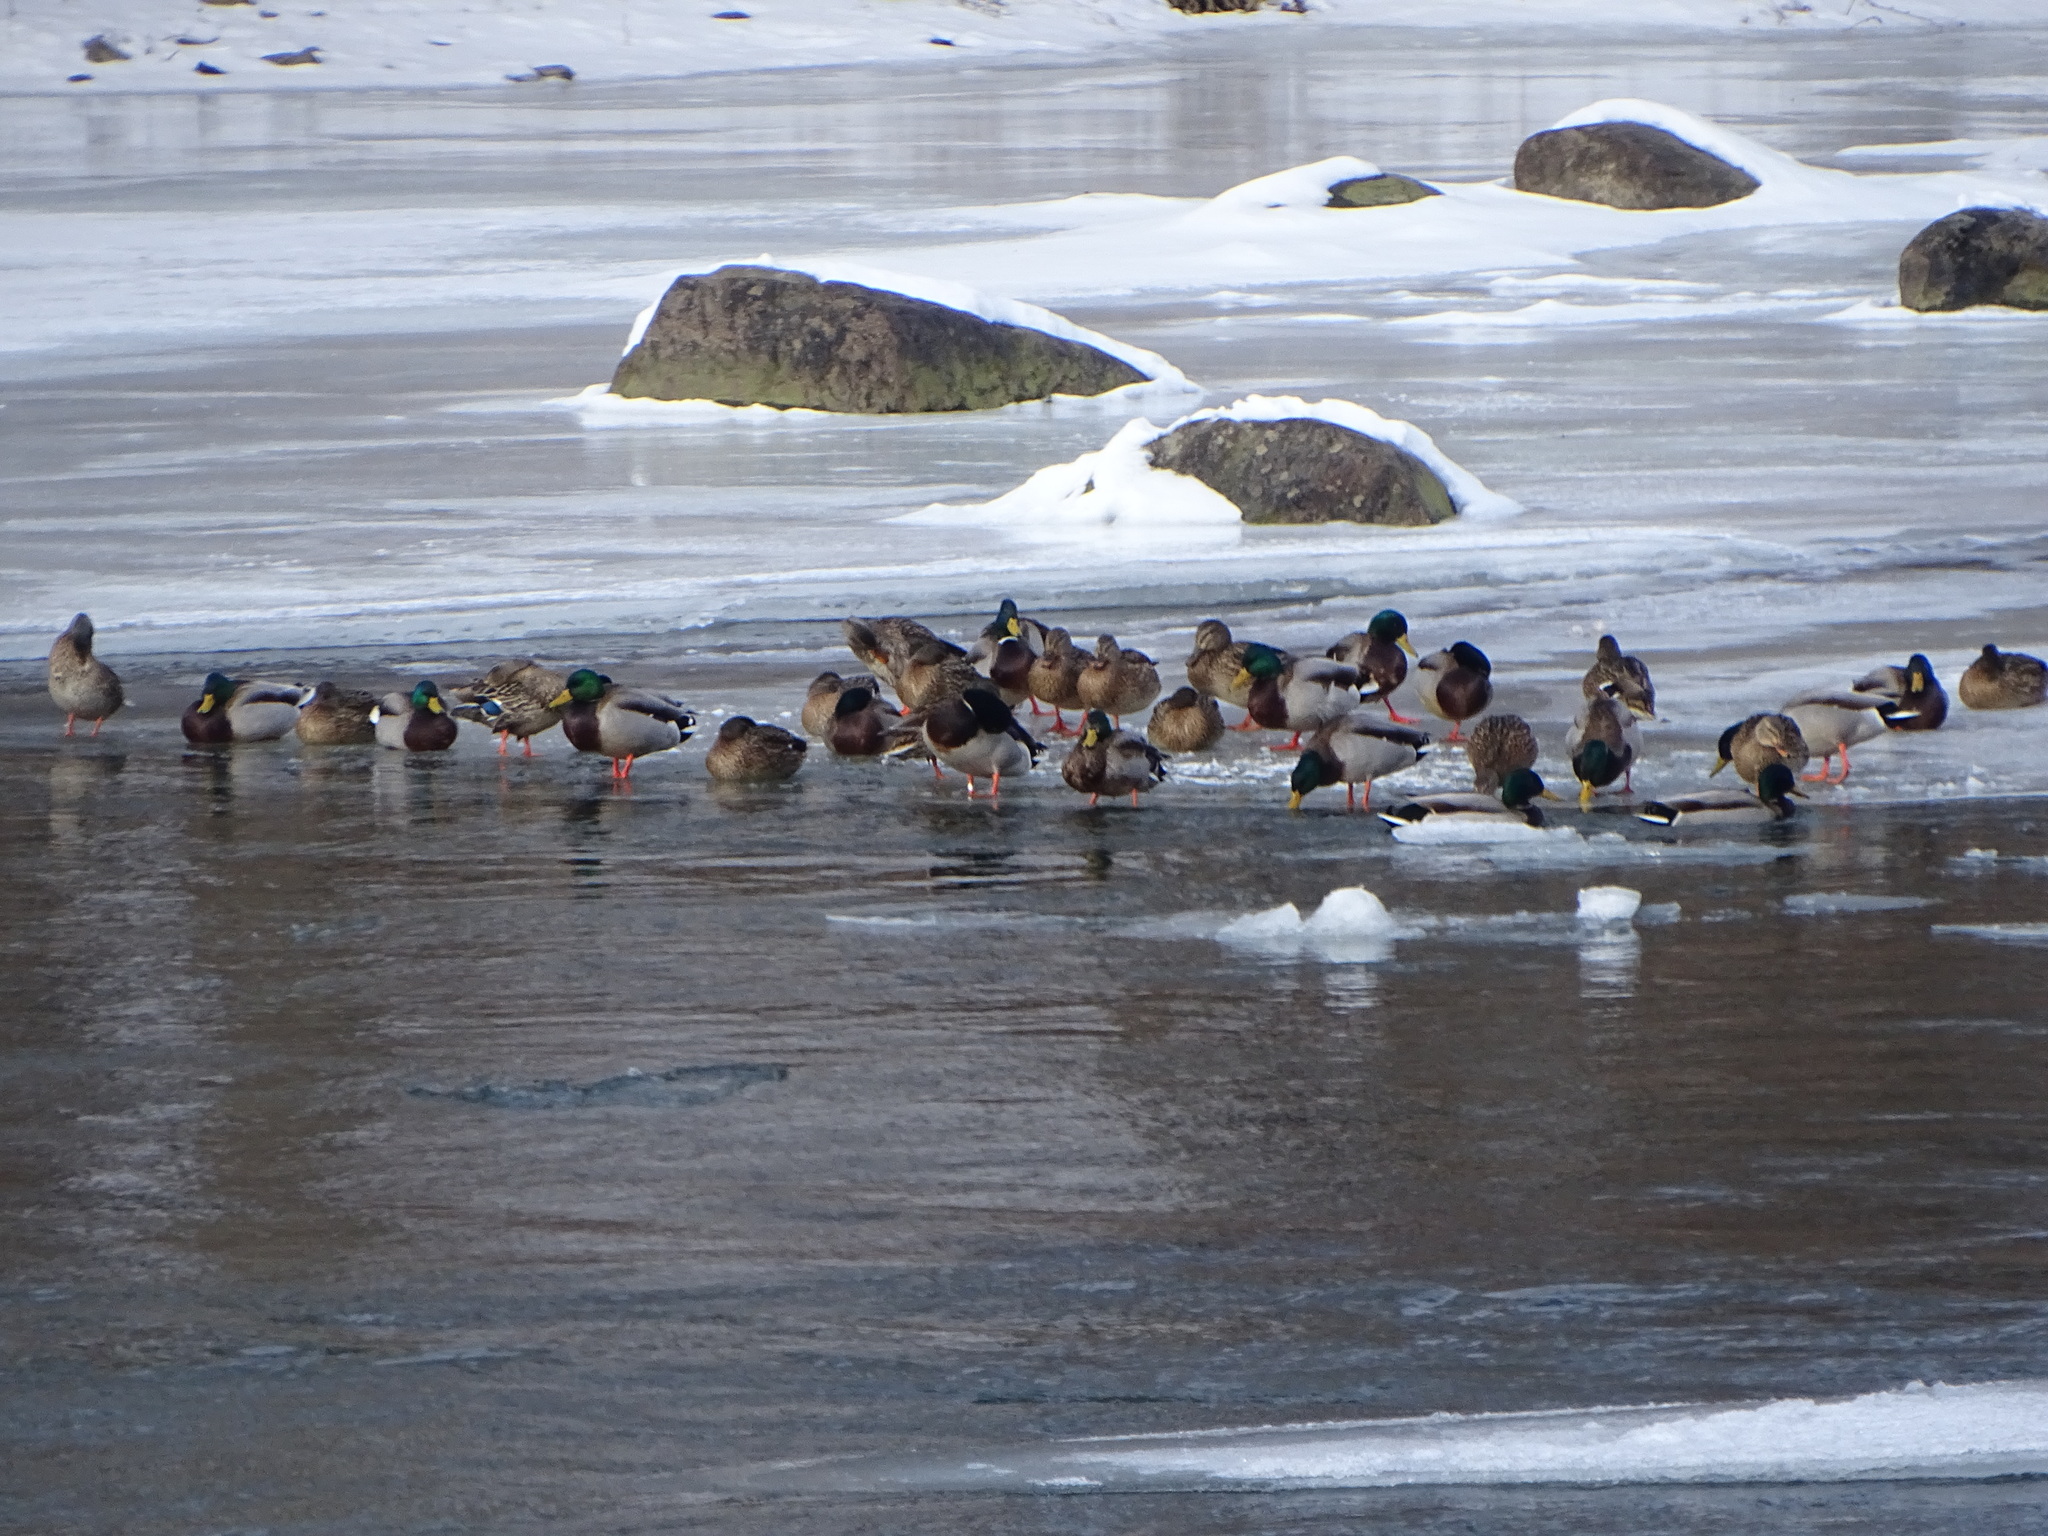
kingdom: Animalia
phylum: Chordata
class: Aves
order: Anseriformes
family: Anatidae
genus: Anas
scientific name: Anas platyrhynchos
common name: Mallard
